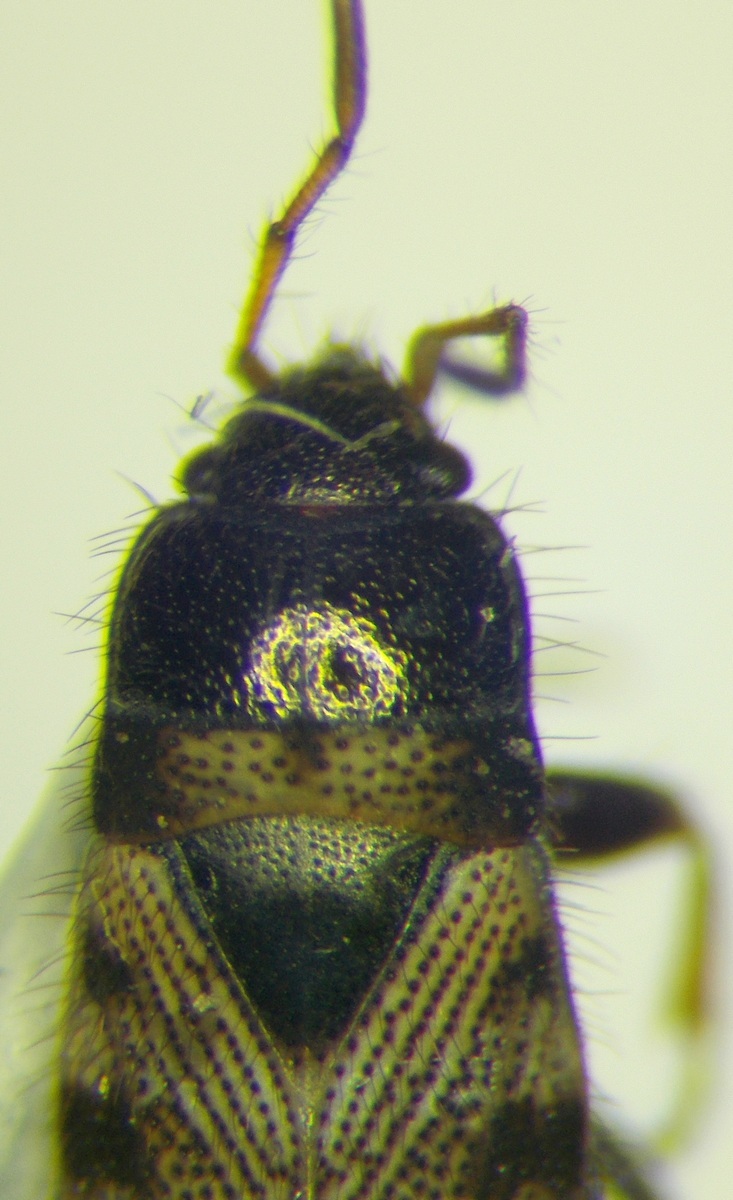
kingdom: Animalia
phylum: Arthropoda
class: Insecta
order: Hemiptera
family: Rhyparochromidae
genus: Pionosomus
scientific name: Pionosomus opacellus
